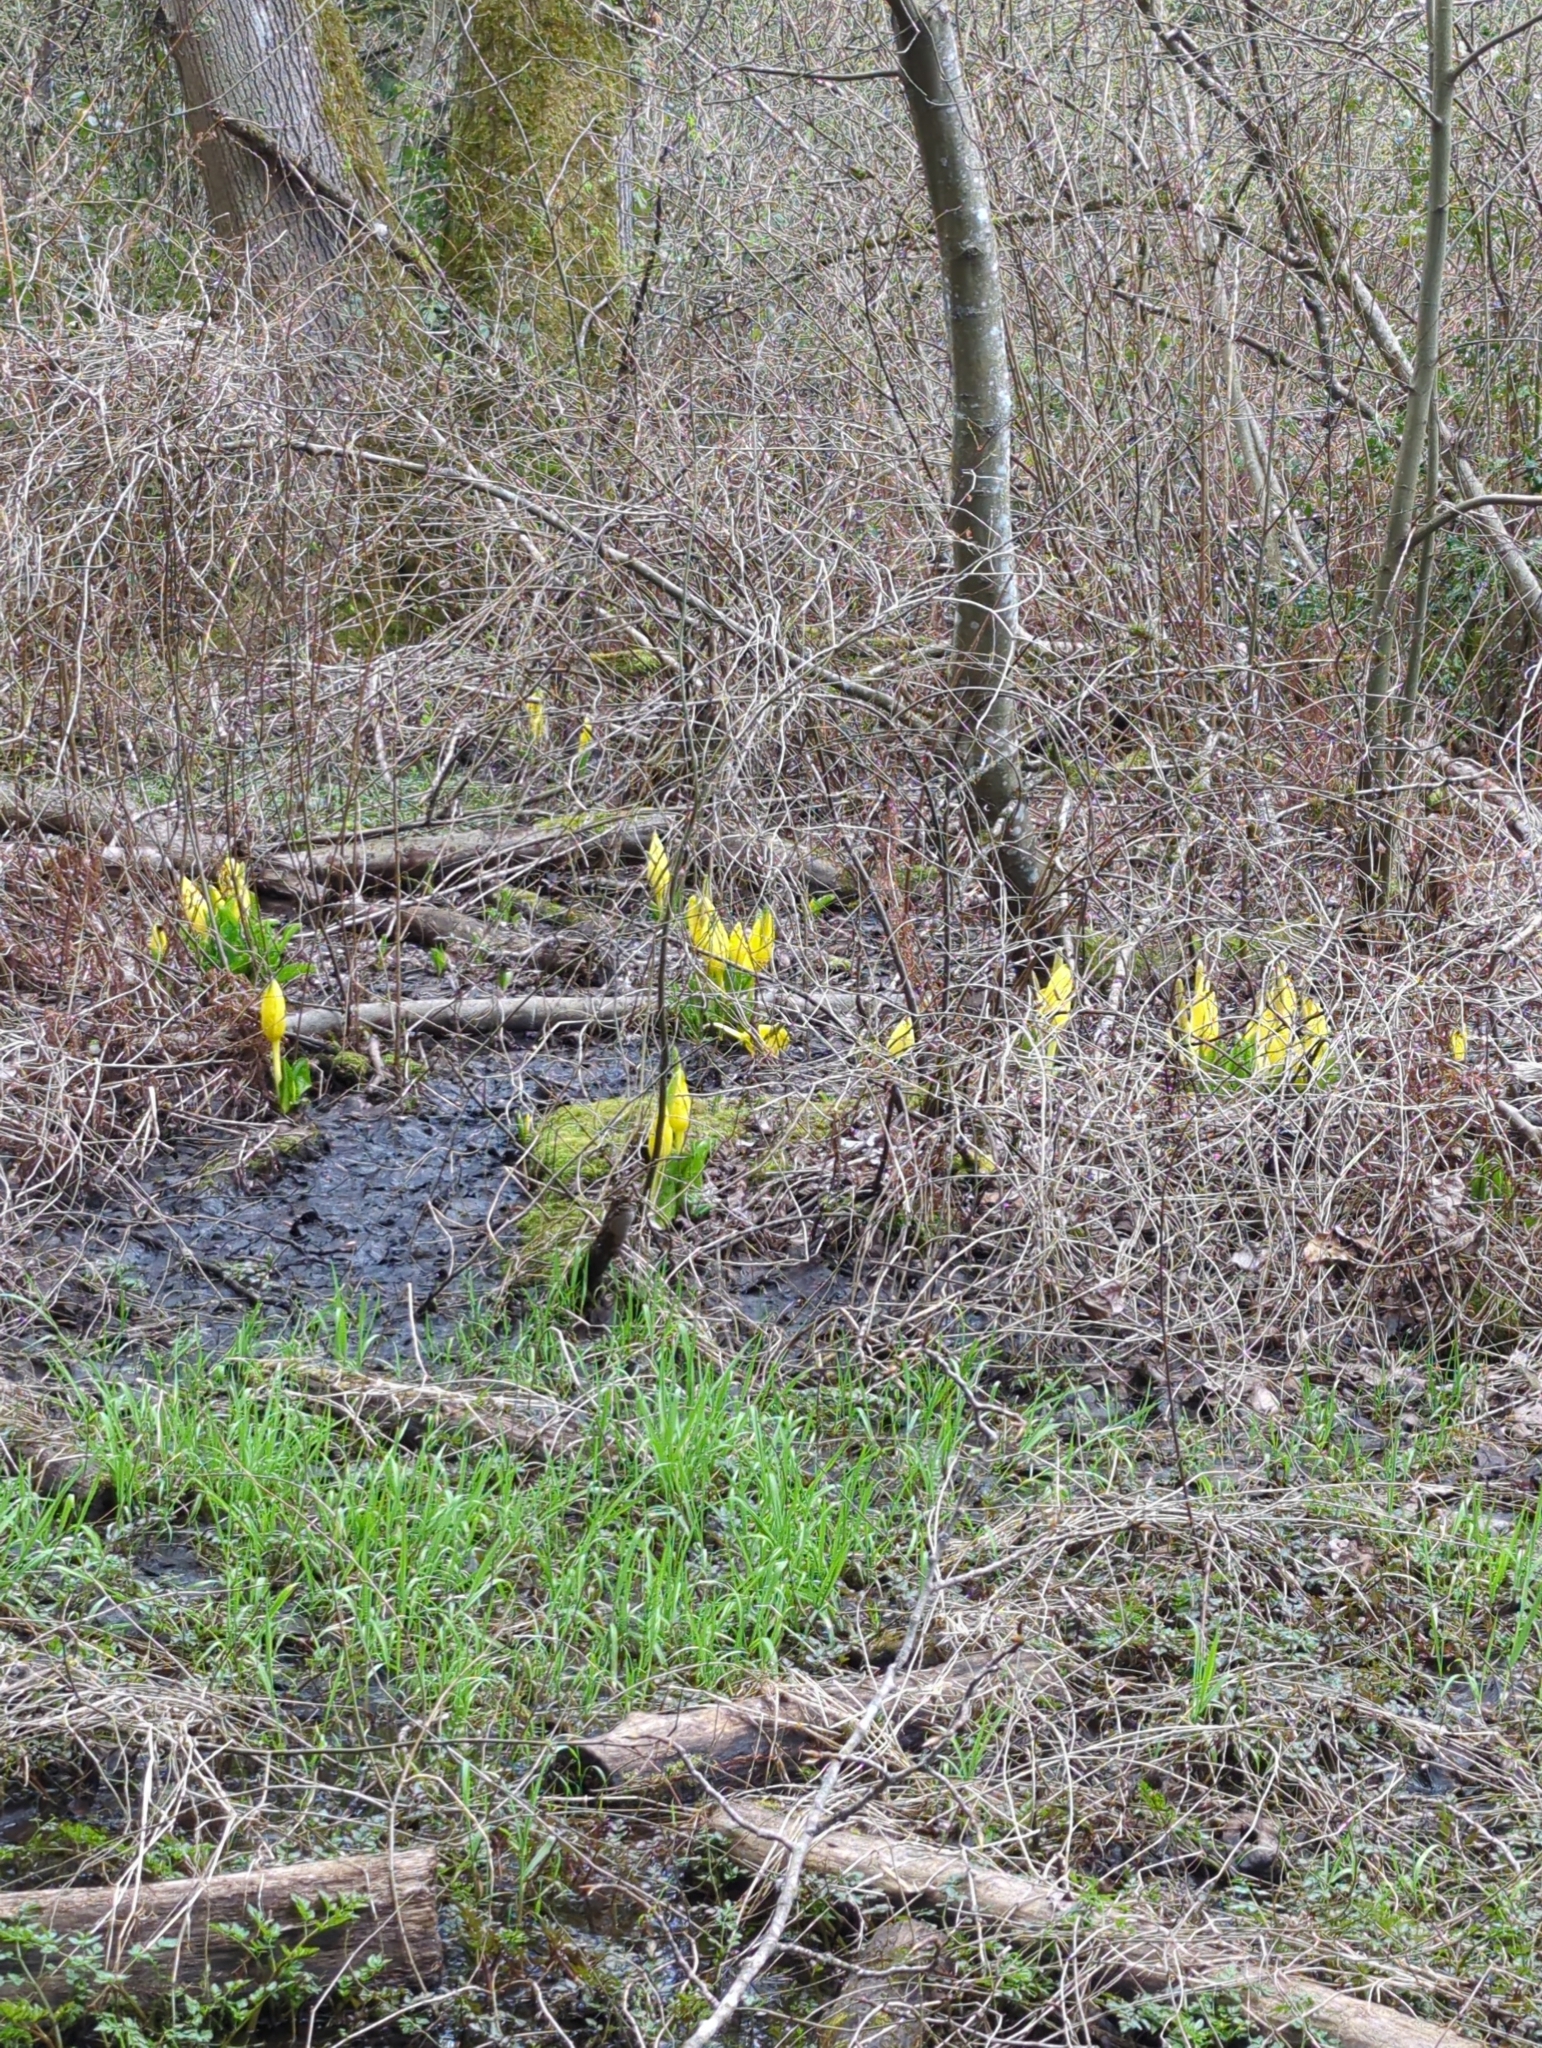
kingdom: Plantae
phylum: Tracheophyta
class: Liliopsida
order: Alismatales
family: Araceae
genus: Lysichiton
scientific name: Lysichiton americanus
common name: American skunk cabbage
